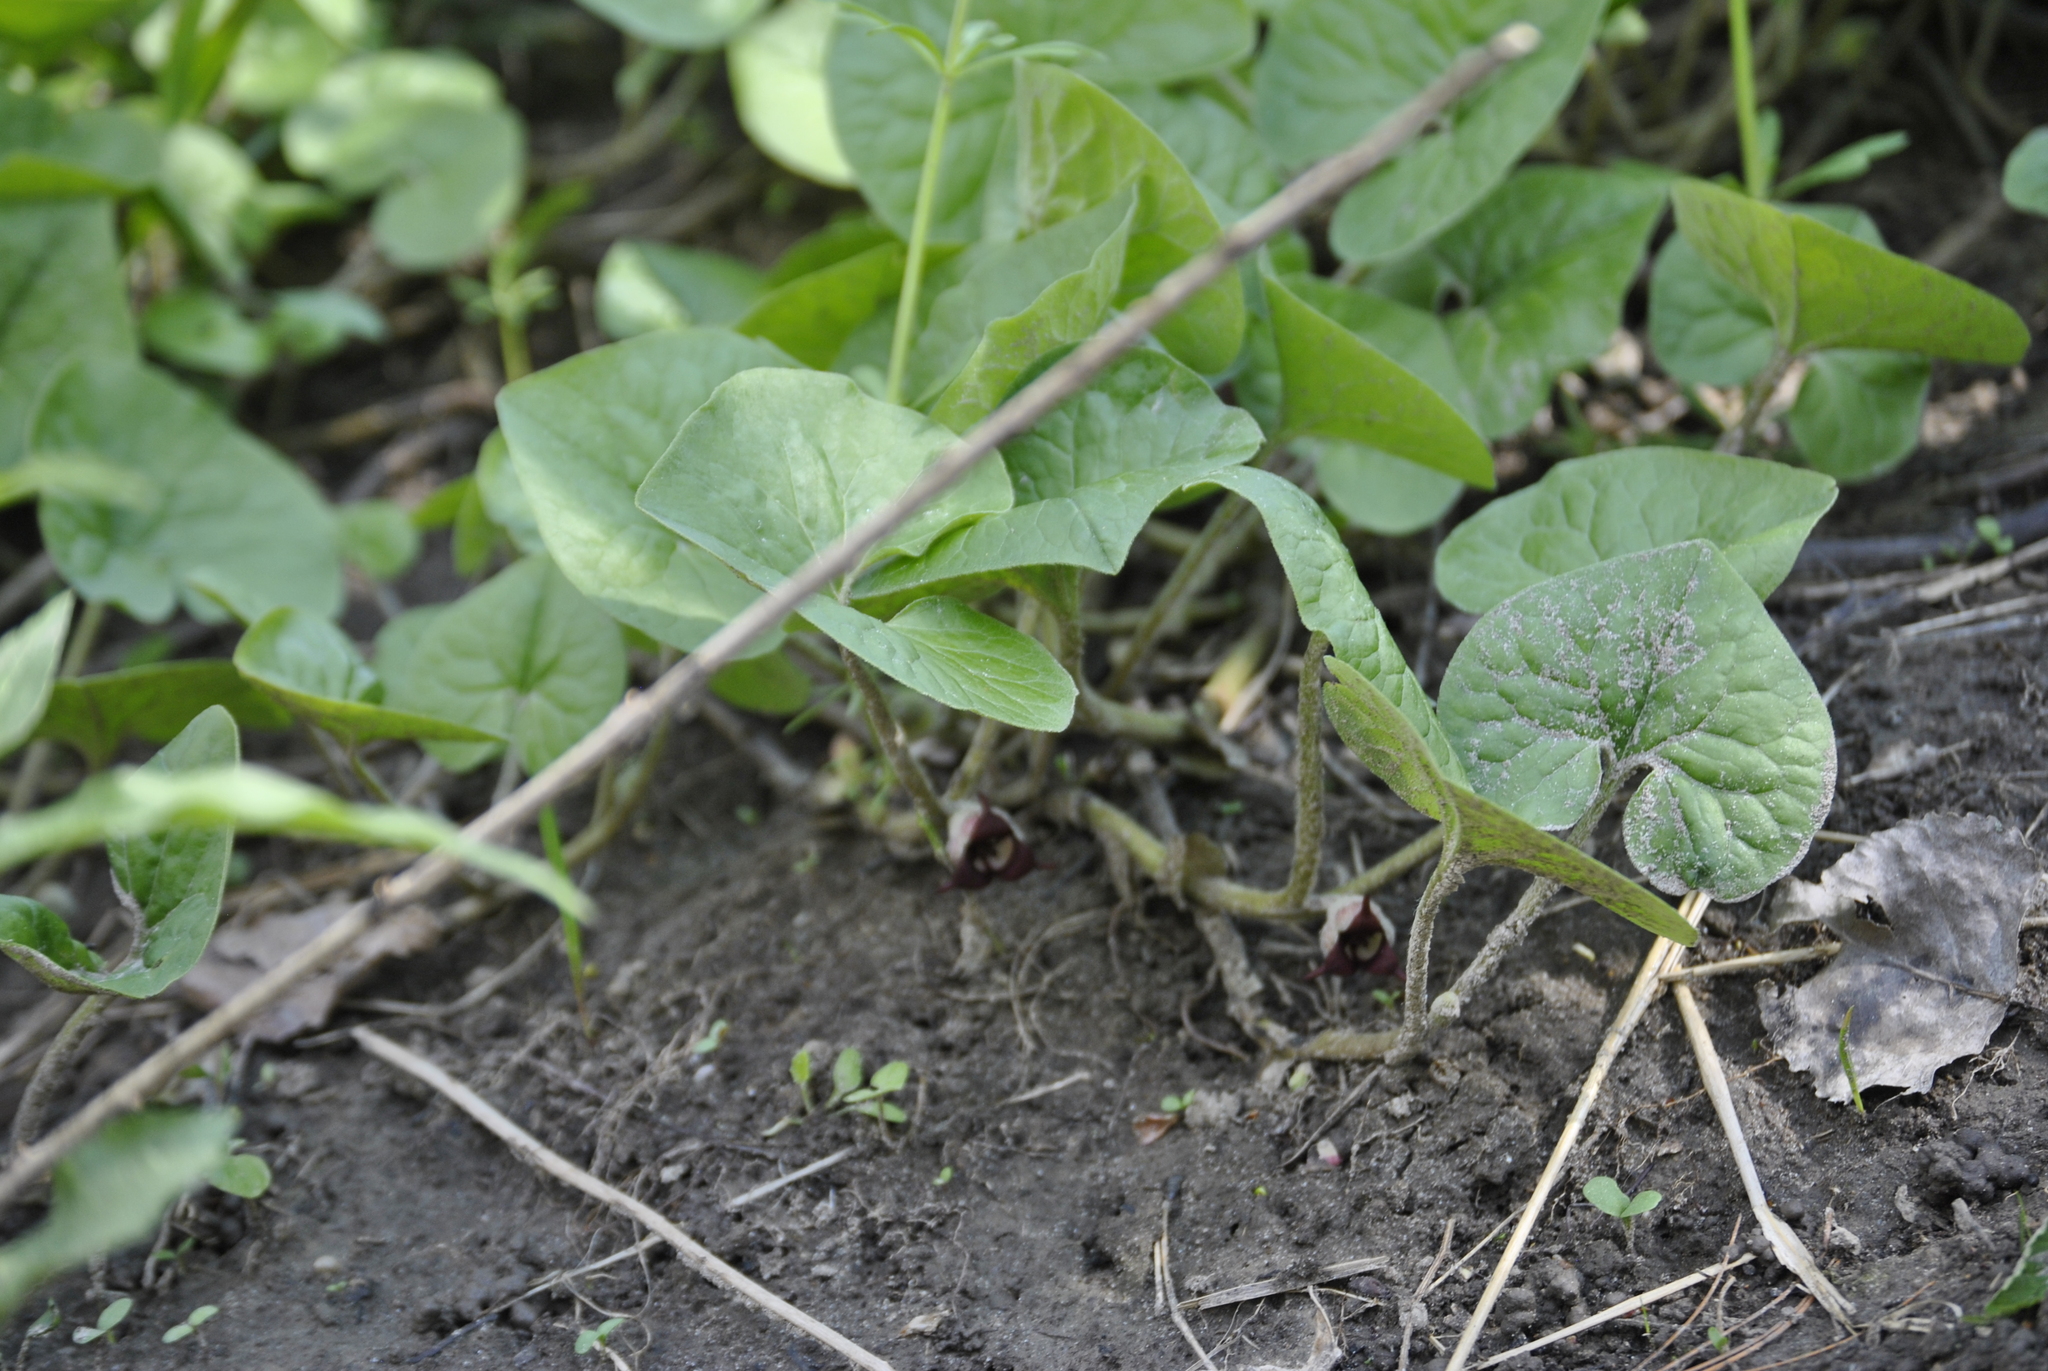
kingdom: Plantae
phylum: Tracheophyta
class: Magnoliopsida
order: Piperales
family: Aristolochiaceae
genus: Asarum
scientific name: Asarum canadense
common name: Wild ginger
